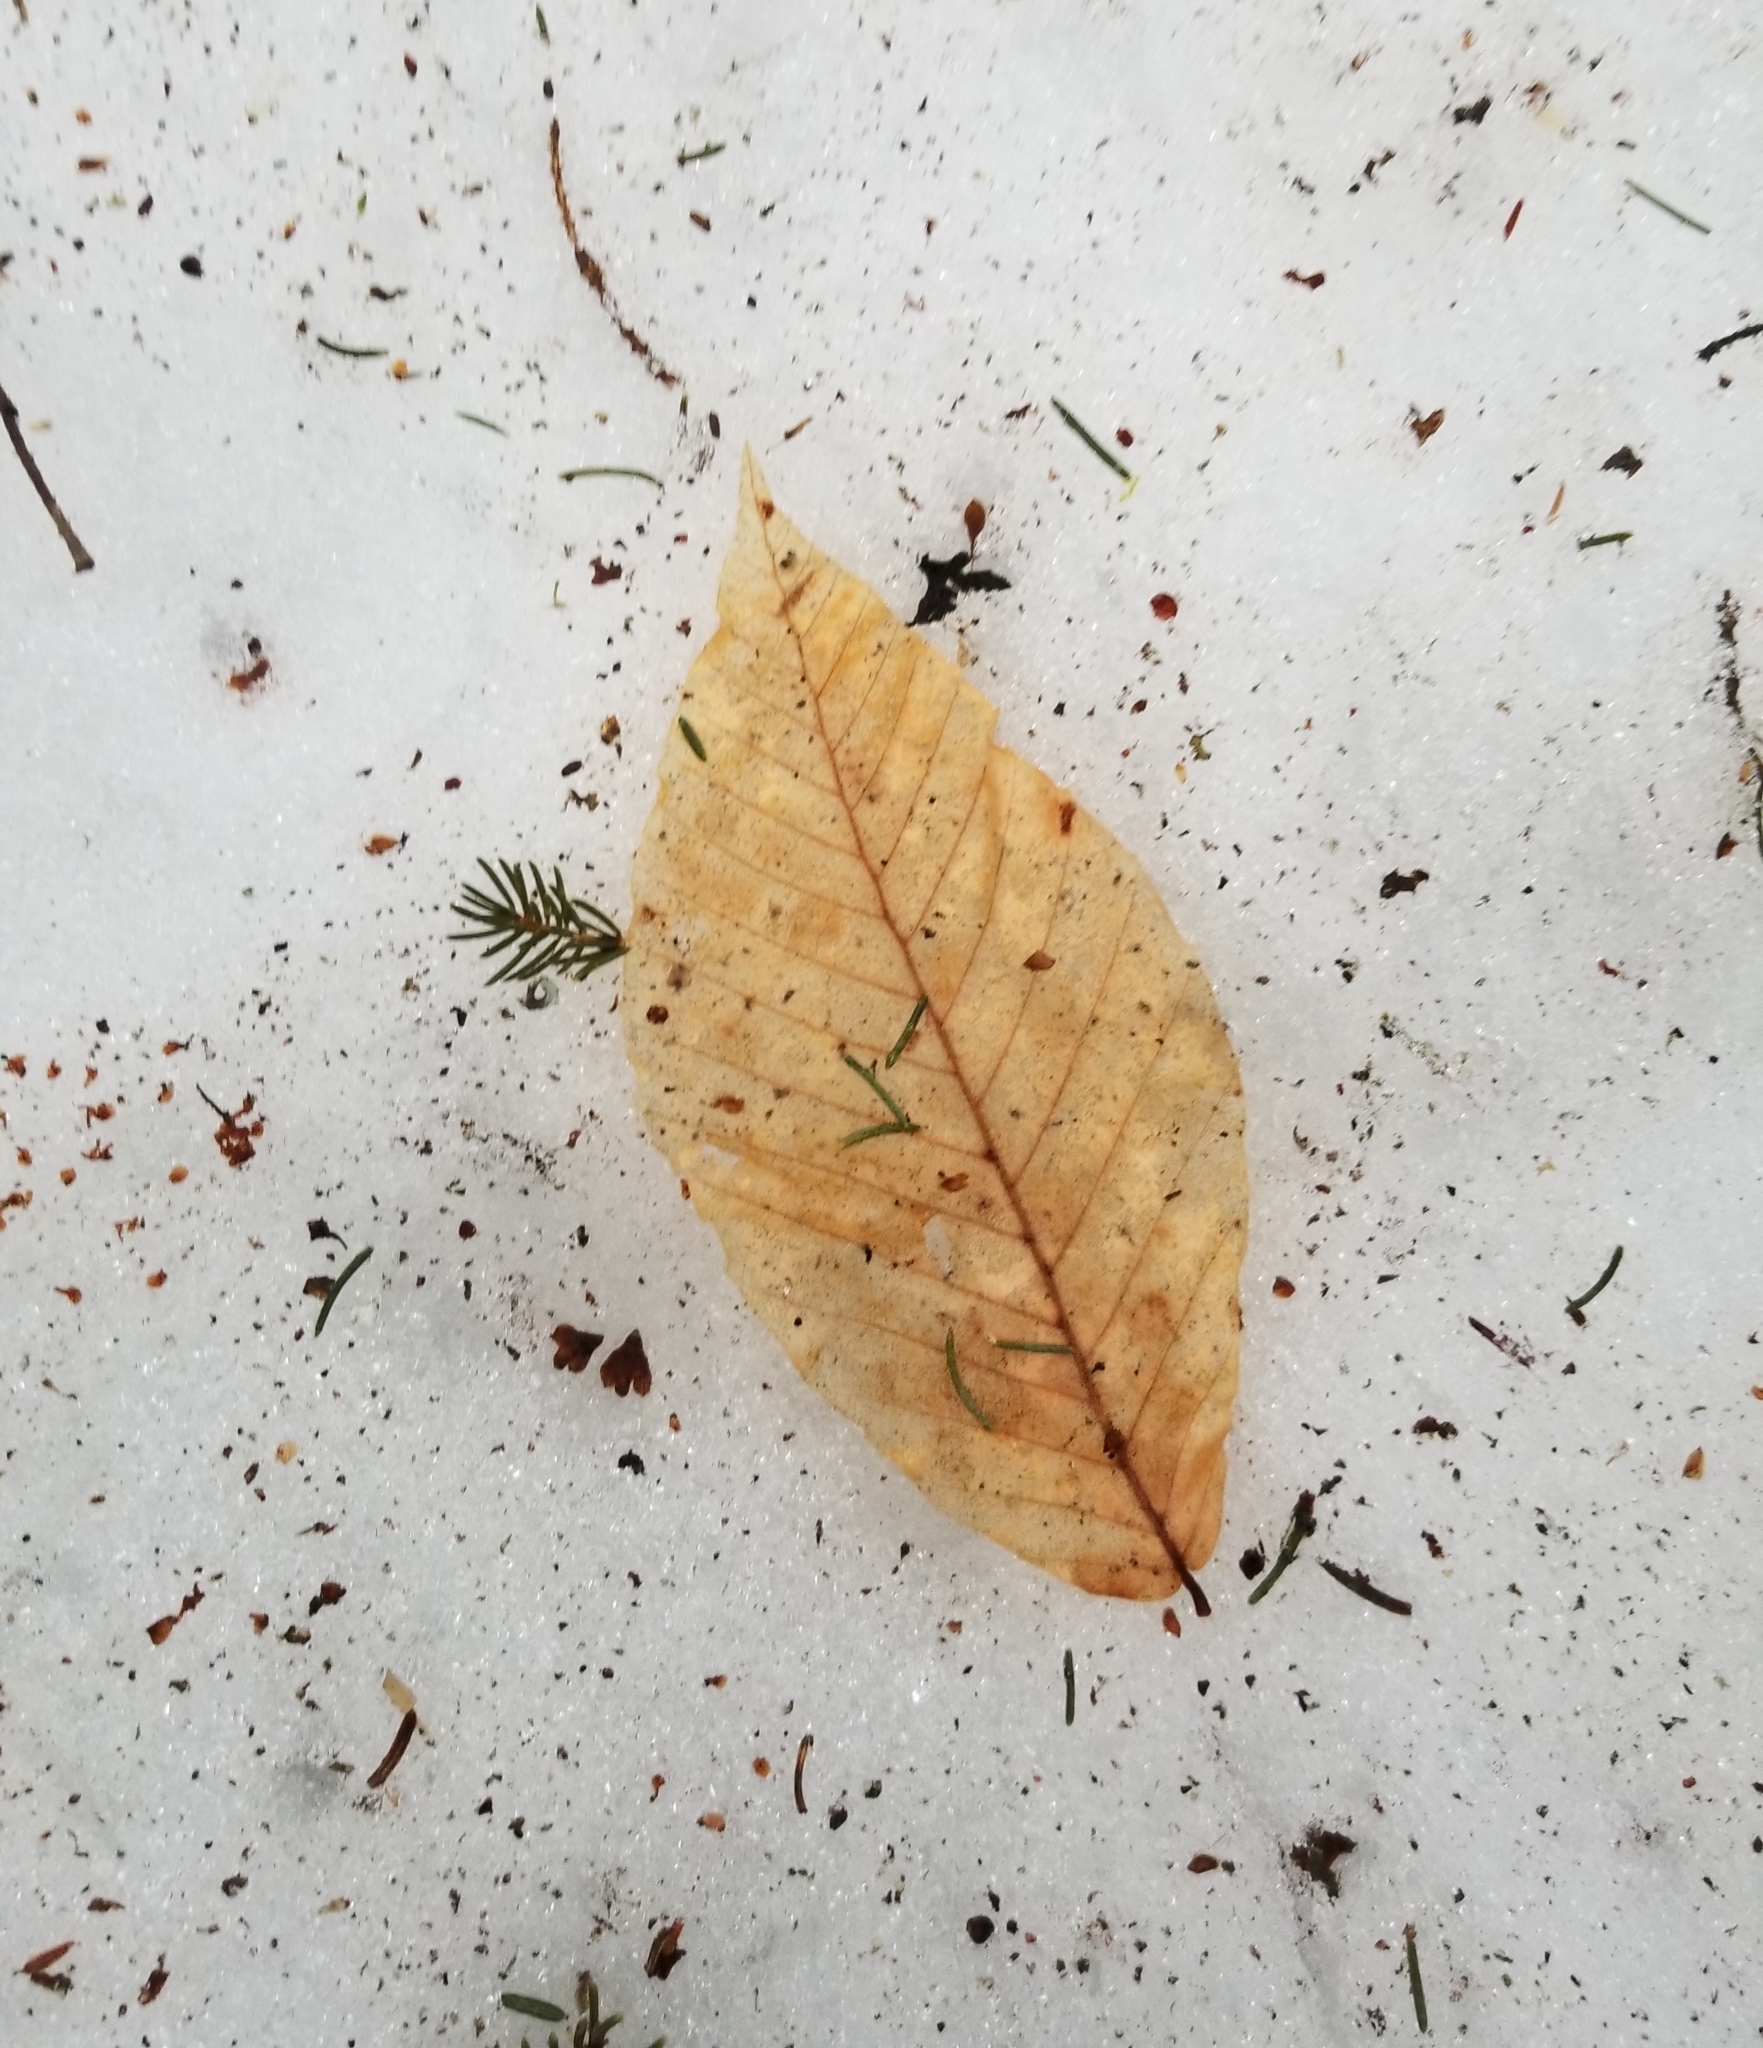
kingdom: Plantae
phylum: Tracheophyta
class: Magnoliopsida
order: Fagales
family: Fagaceae
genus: Fagus
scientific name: Fagus grandifolia
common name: American beech
